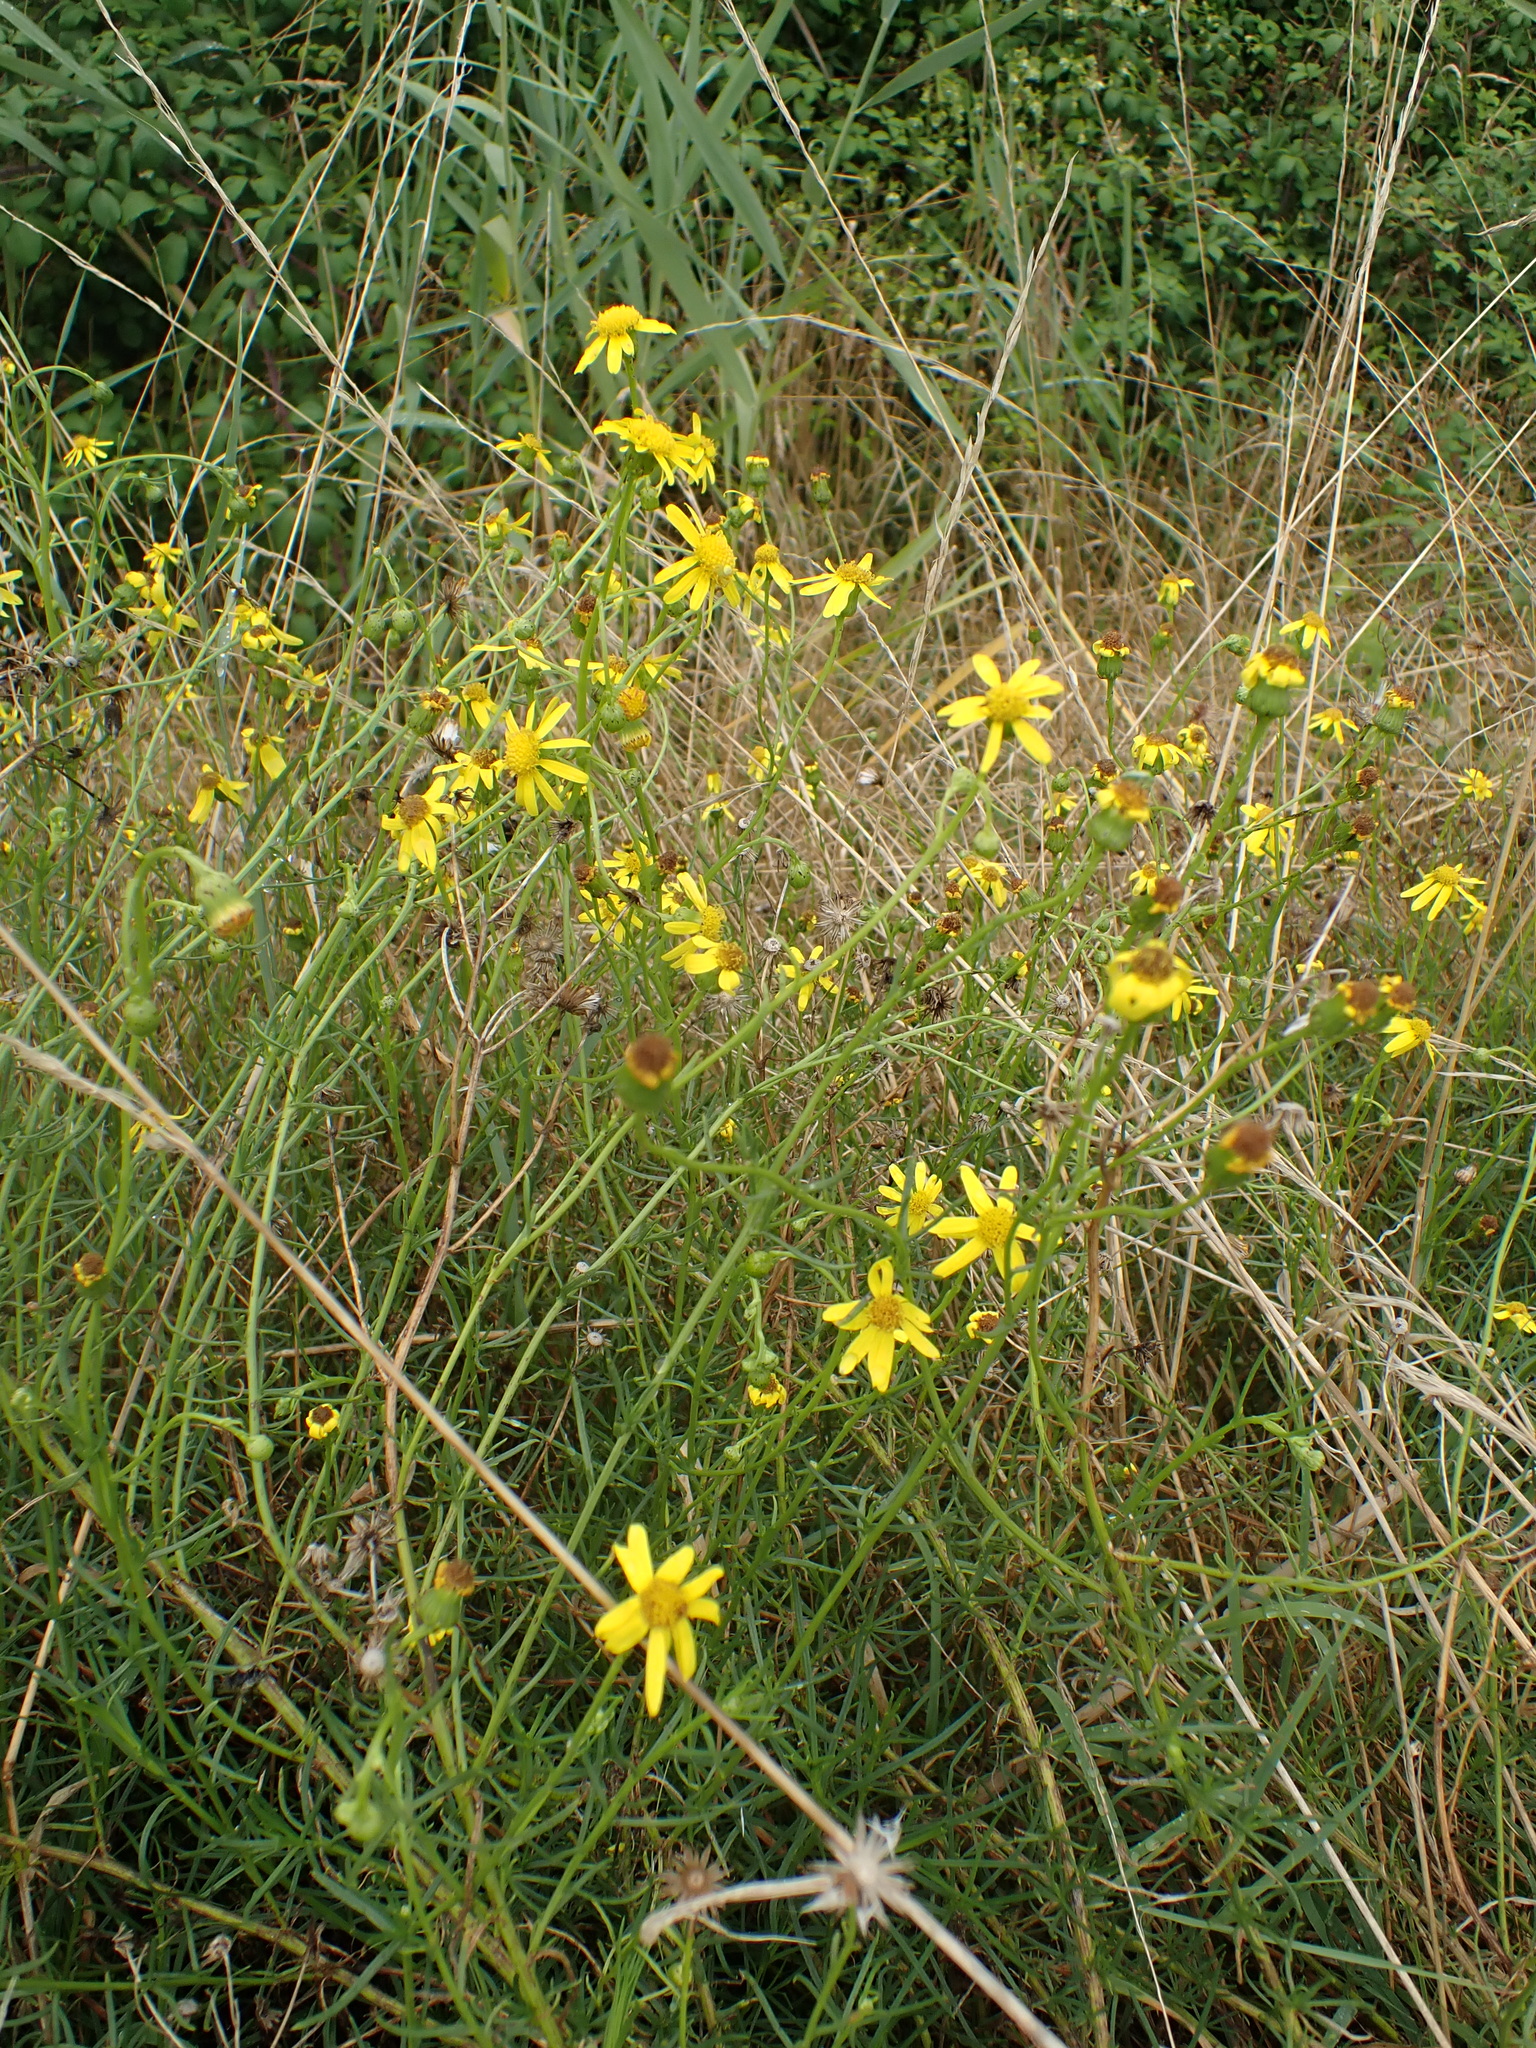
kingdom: Plantae
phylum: Tracheophyta
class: Magnoliopsida
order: Asterales
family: Asteraceae
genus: Senecio
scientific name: Senecio inaequidens
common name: Narrow-leaved ragwort
